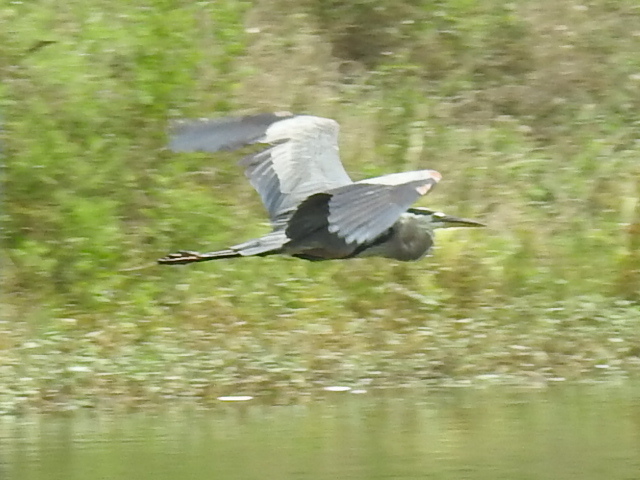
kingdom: Animalia
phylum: Chordata
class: Aves
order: Pelecaniformes
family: Ardeidae
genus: Ardea
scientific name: Ardea herodias
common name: Great blue heron
